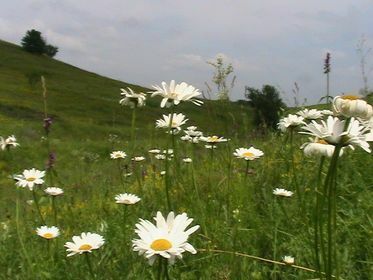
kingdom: Plantae
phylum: Tracheophyta
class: Magnoliopsida
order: Asterales
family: Asteraceae
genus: Leucanthemum
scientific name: Leucanthemum vulgare
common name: Oxeye daisy
